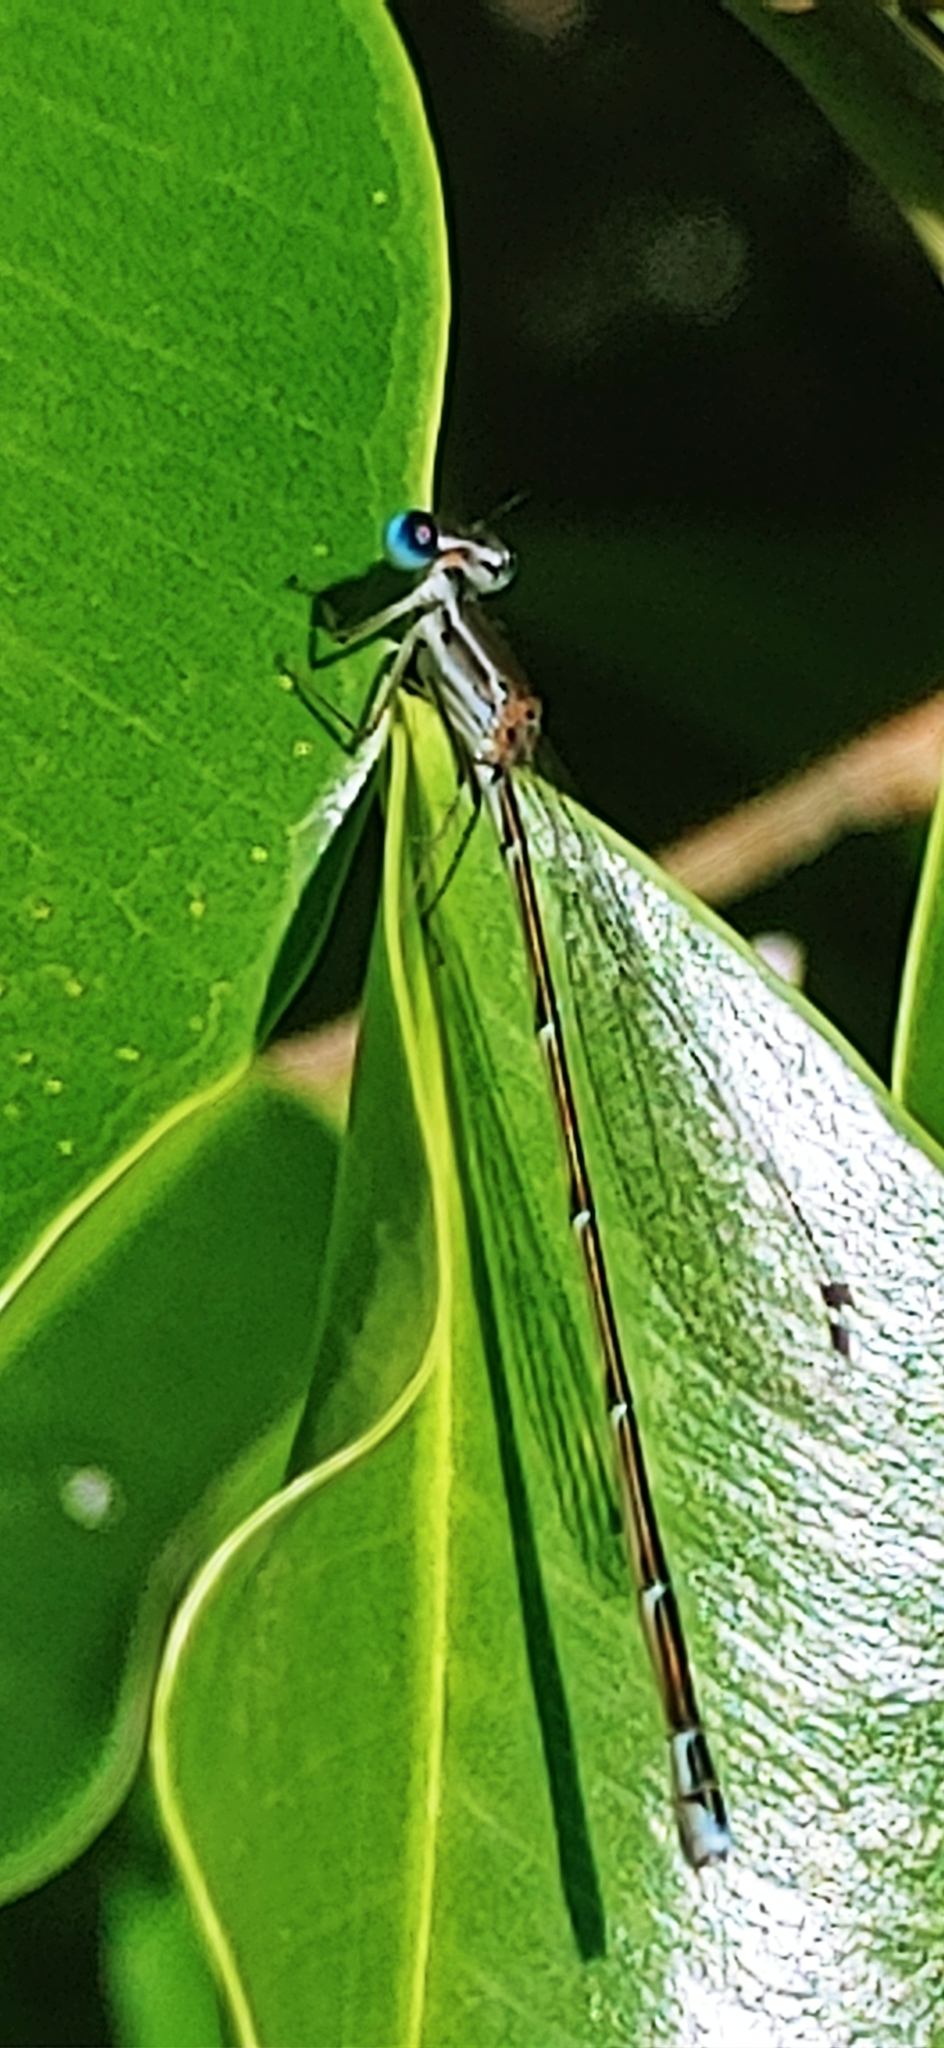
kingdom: Animalia
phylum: Arthropoda
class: Insecta
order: Odonata
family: Coenagrionidae
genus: Nehalennia
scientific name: Nehalennia pallidula
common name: Everglades sprite
